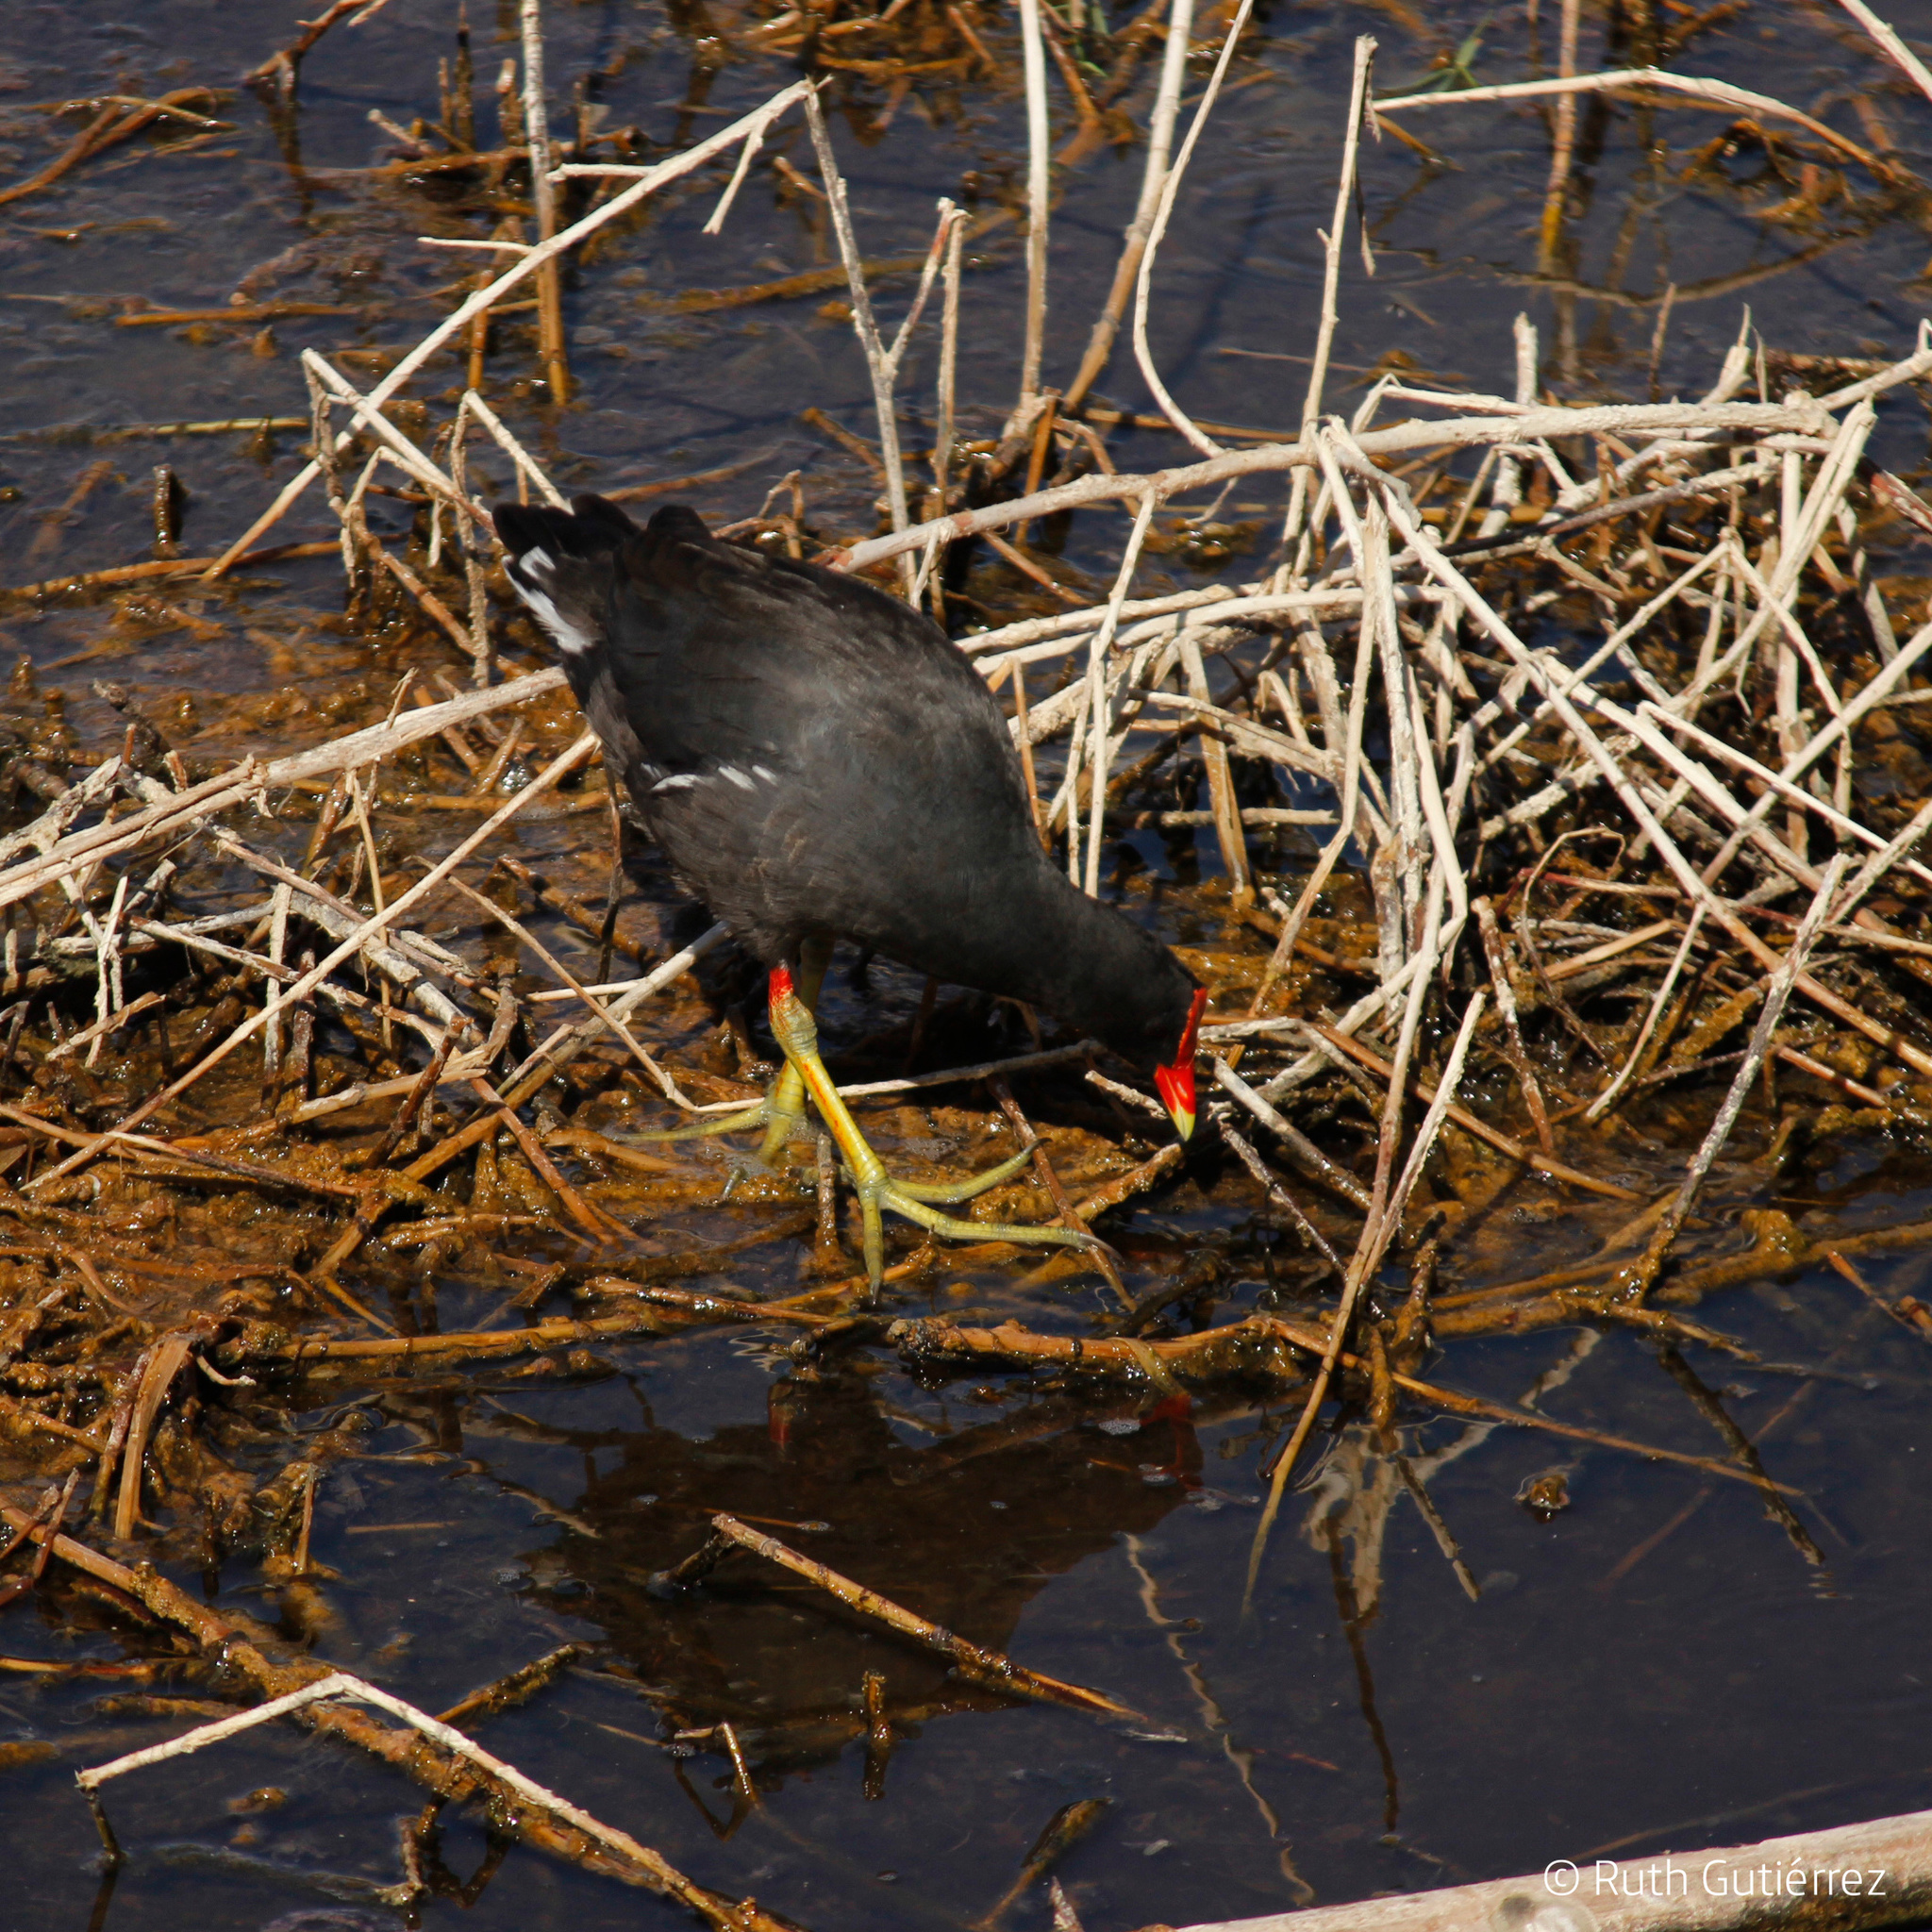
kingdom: Animalia
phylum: Chordata
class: Aves
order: Gruiformes
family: Rallidae
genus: Gallinula
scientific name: Gallinula chloropus
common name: Common moorhen
